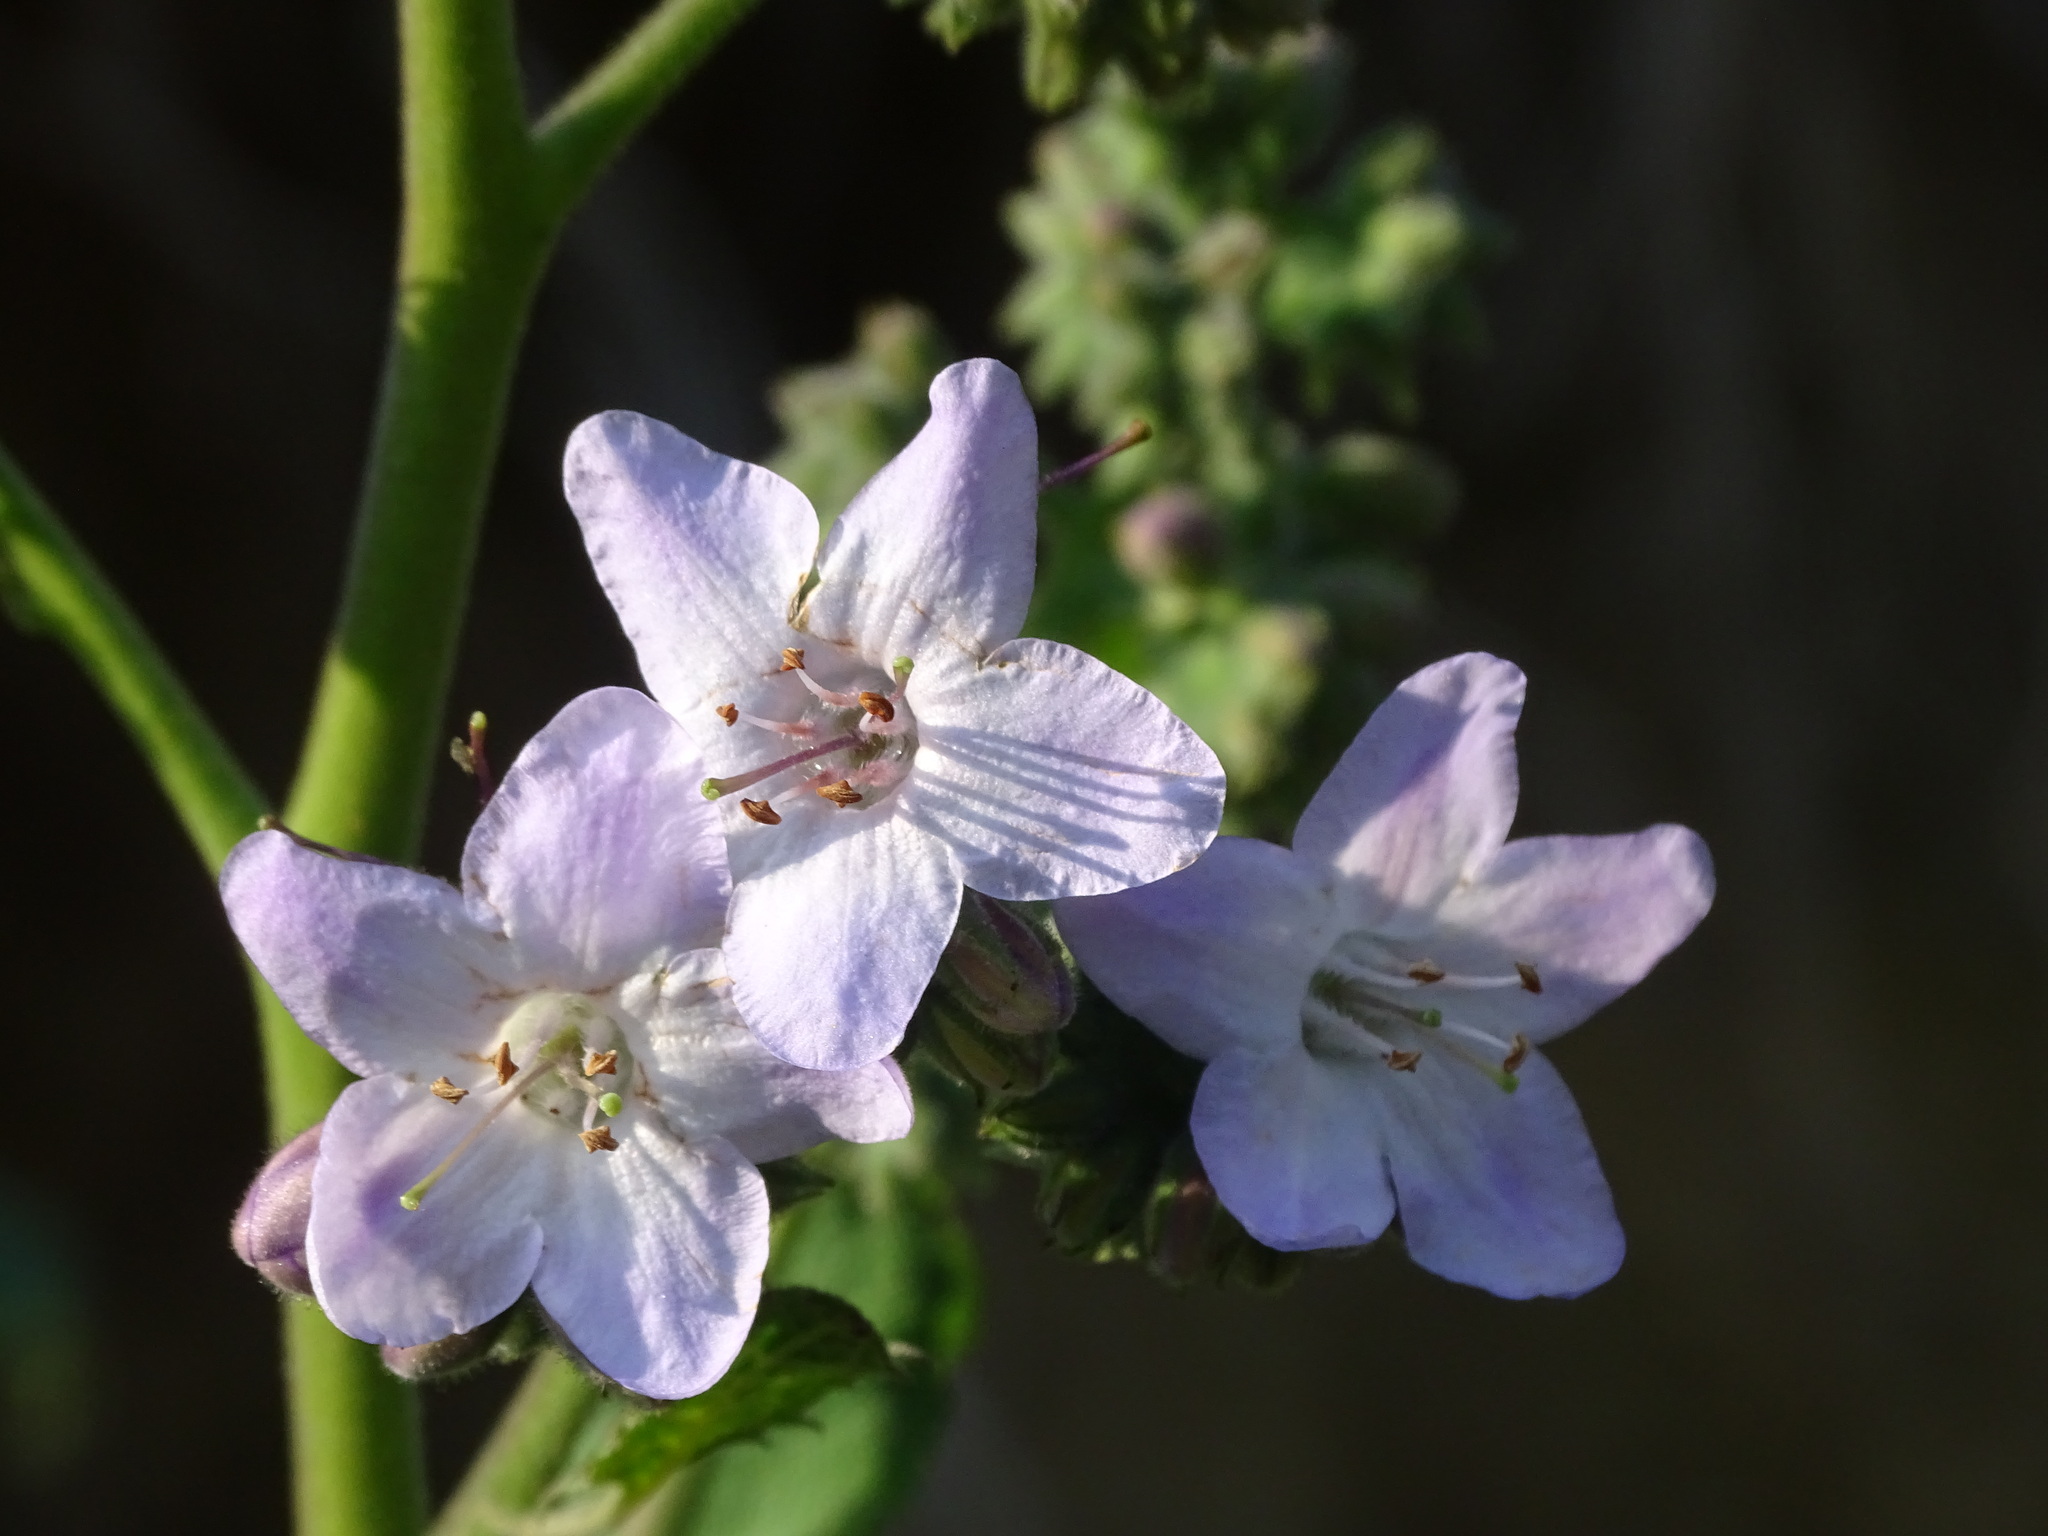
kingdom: Plantae
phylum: Tracheophyta
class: Magnoliopsida
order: Boraginales
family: Namaceae
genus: Wigandia
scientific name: Wigandia urens
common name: Caracus wigandia
